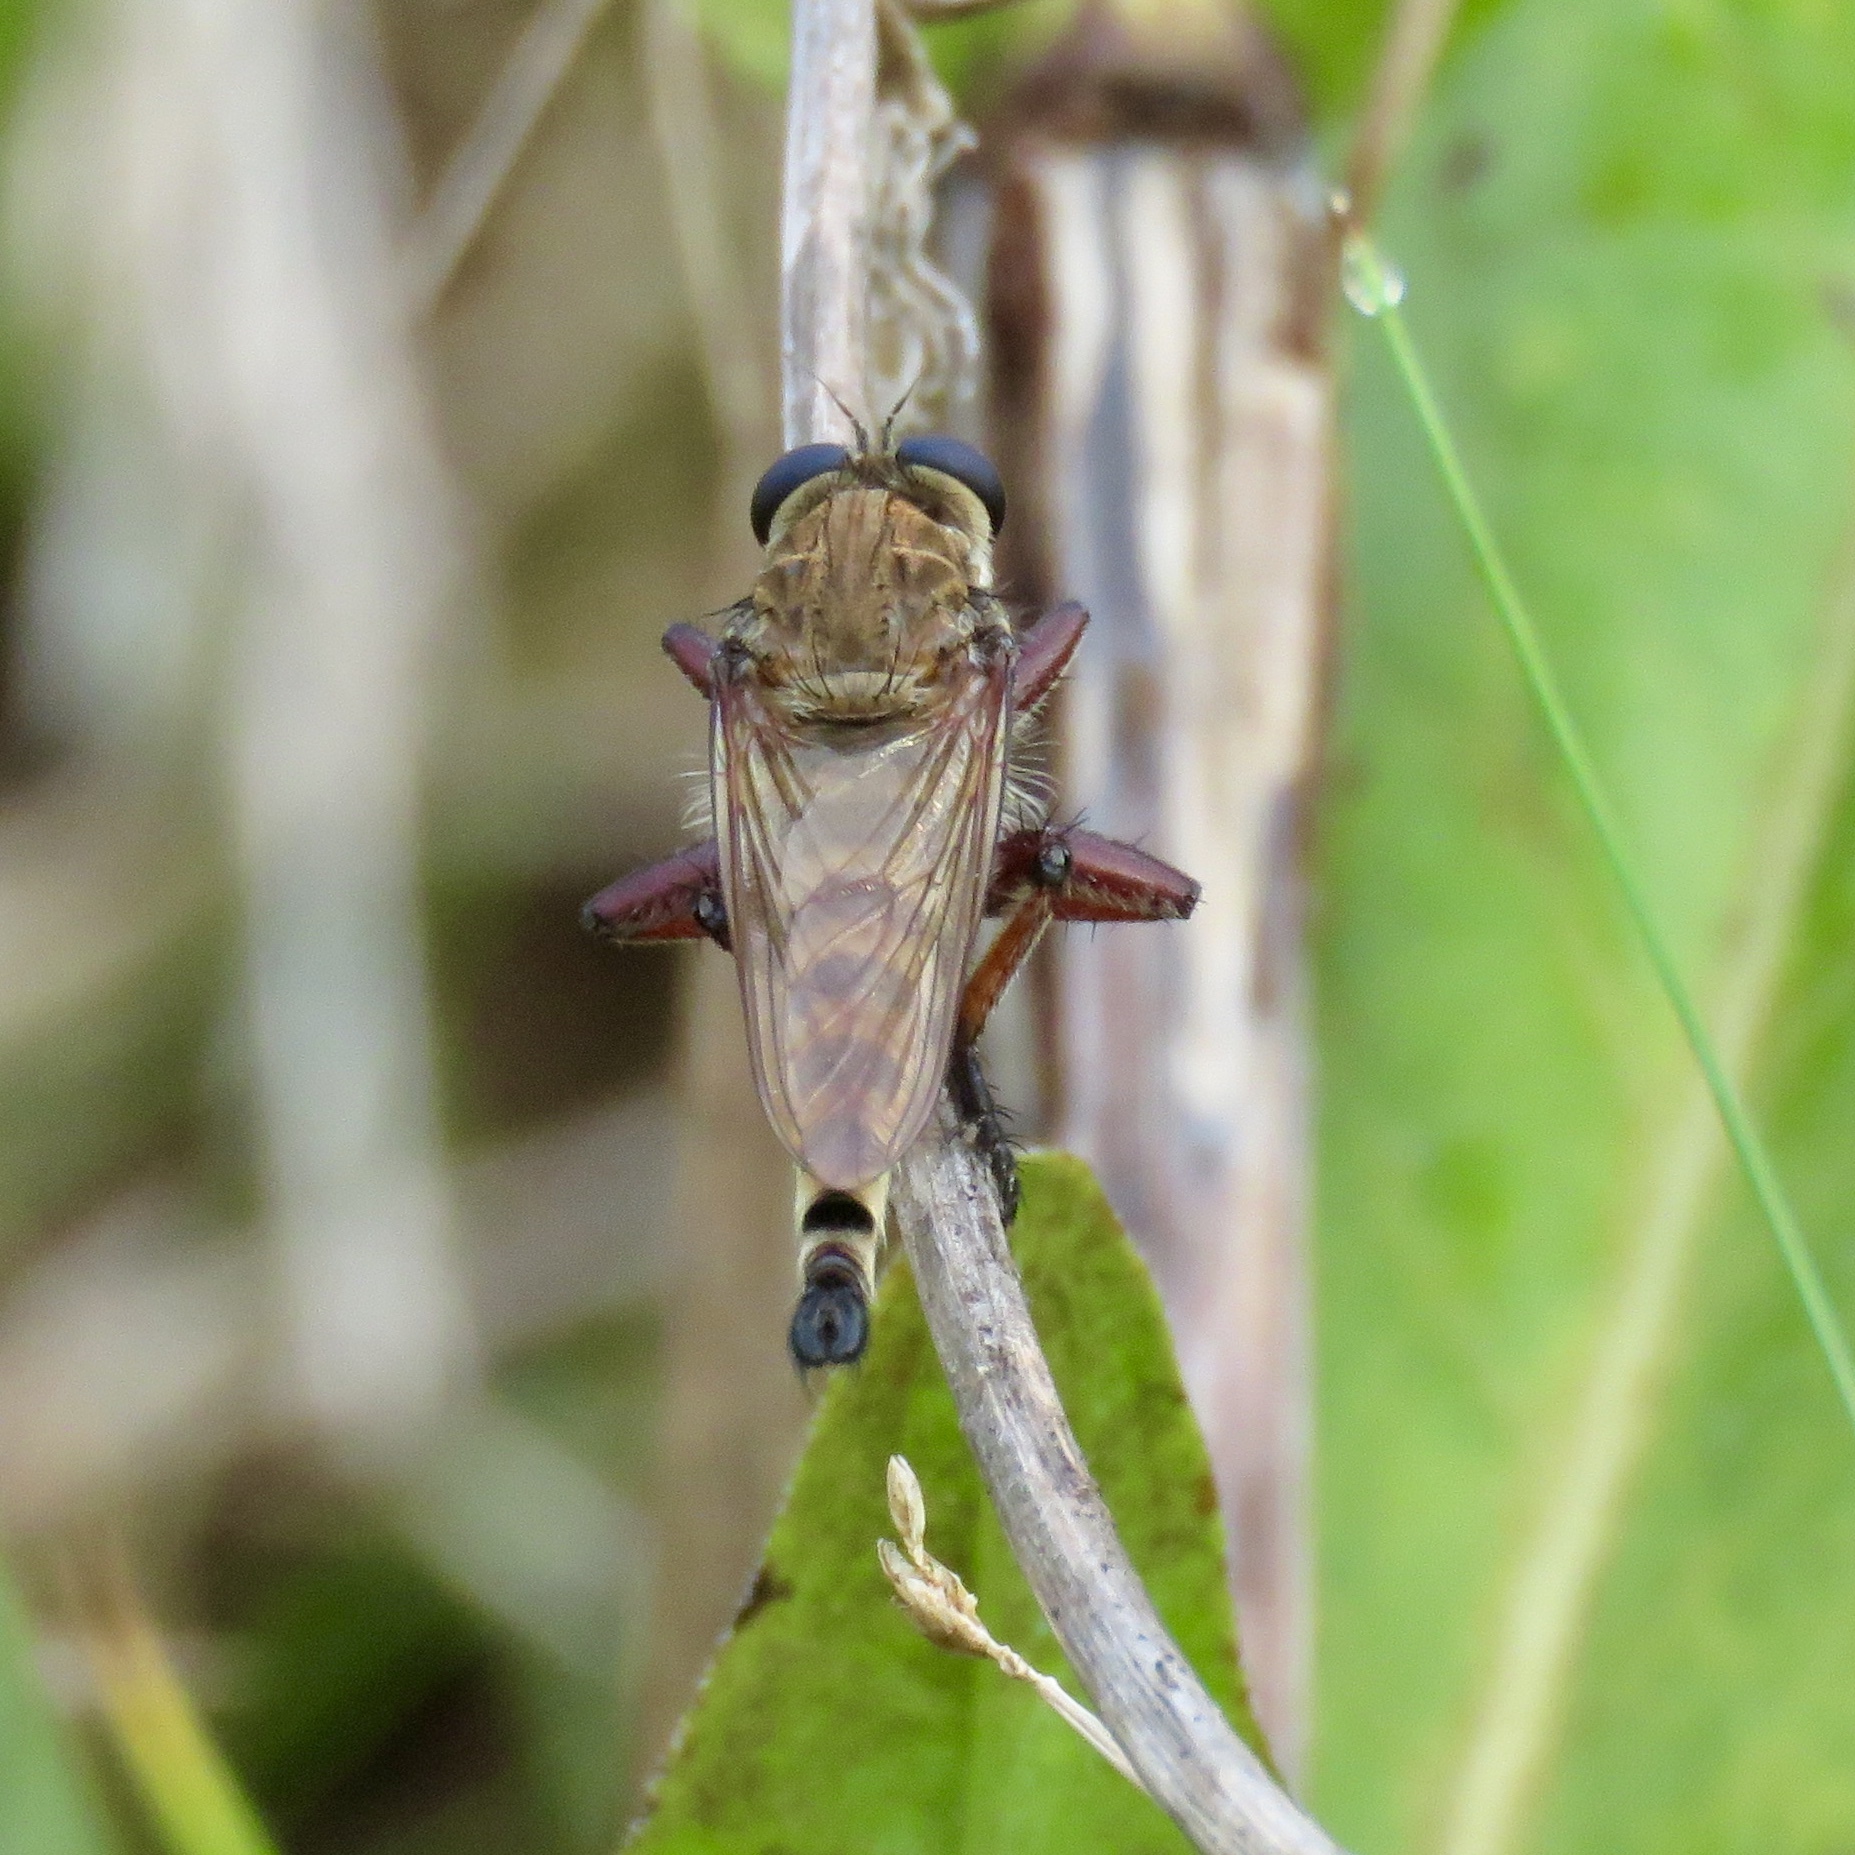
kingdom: Animalia
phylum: Arthropoda
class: Insecta
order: Diptera
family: Asilidae
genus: Promachus
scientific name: Promachus hinei
